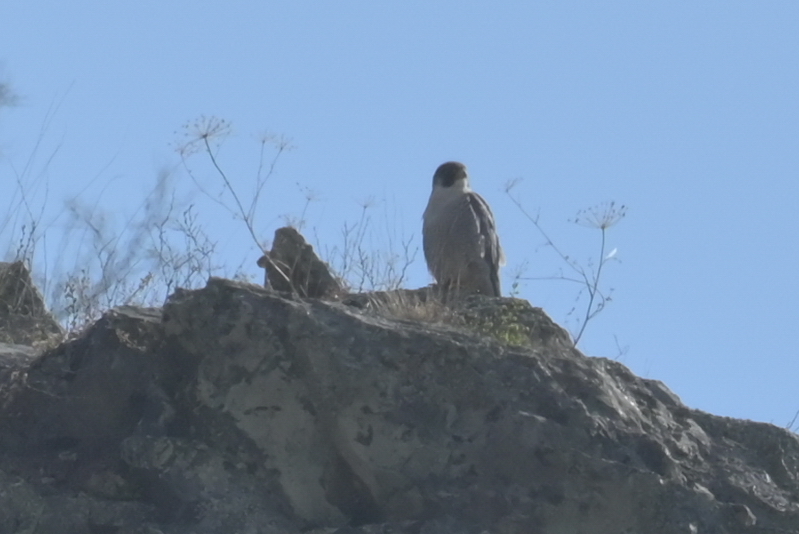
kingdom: Animalia
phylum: Chordata
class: Aves
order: Falconiformes
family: Falconidae
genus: Falco
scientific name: Falco peregrinus
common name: Peregrine falcon
